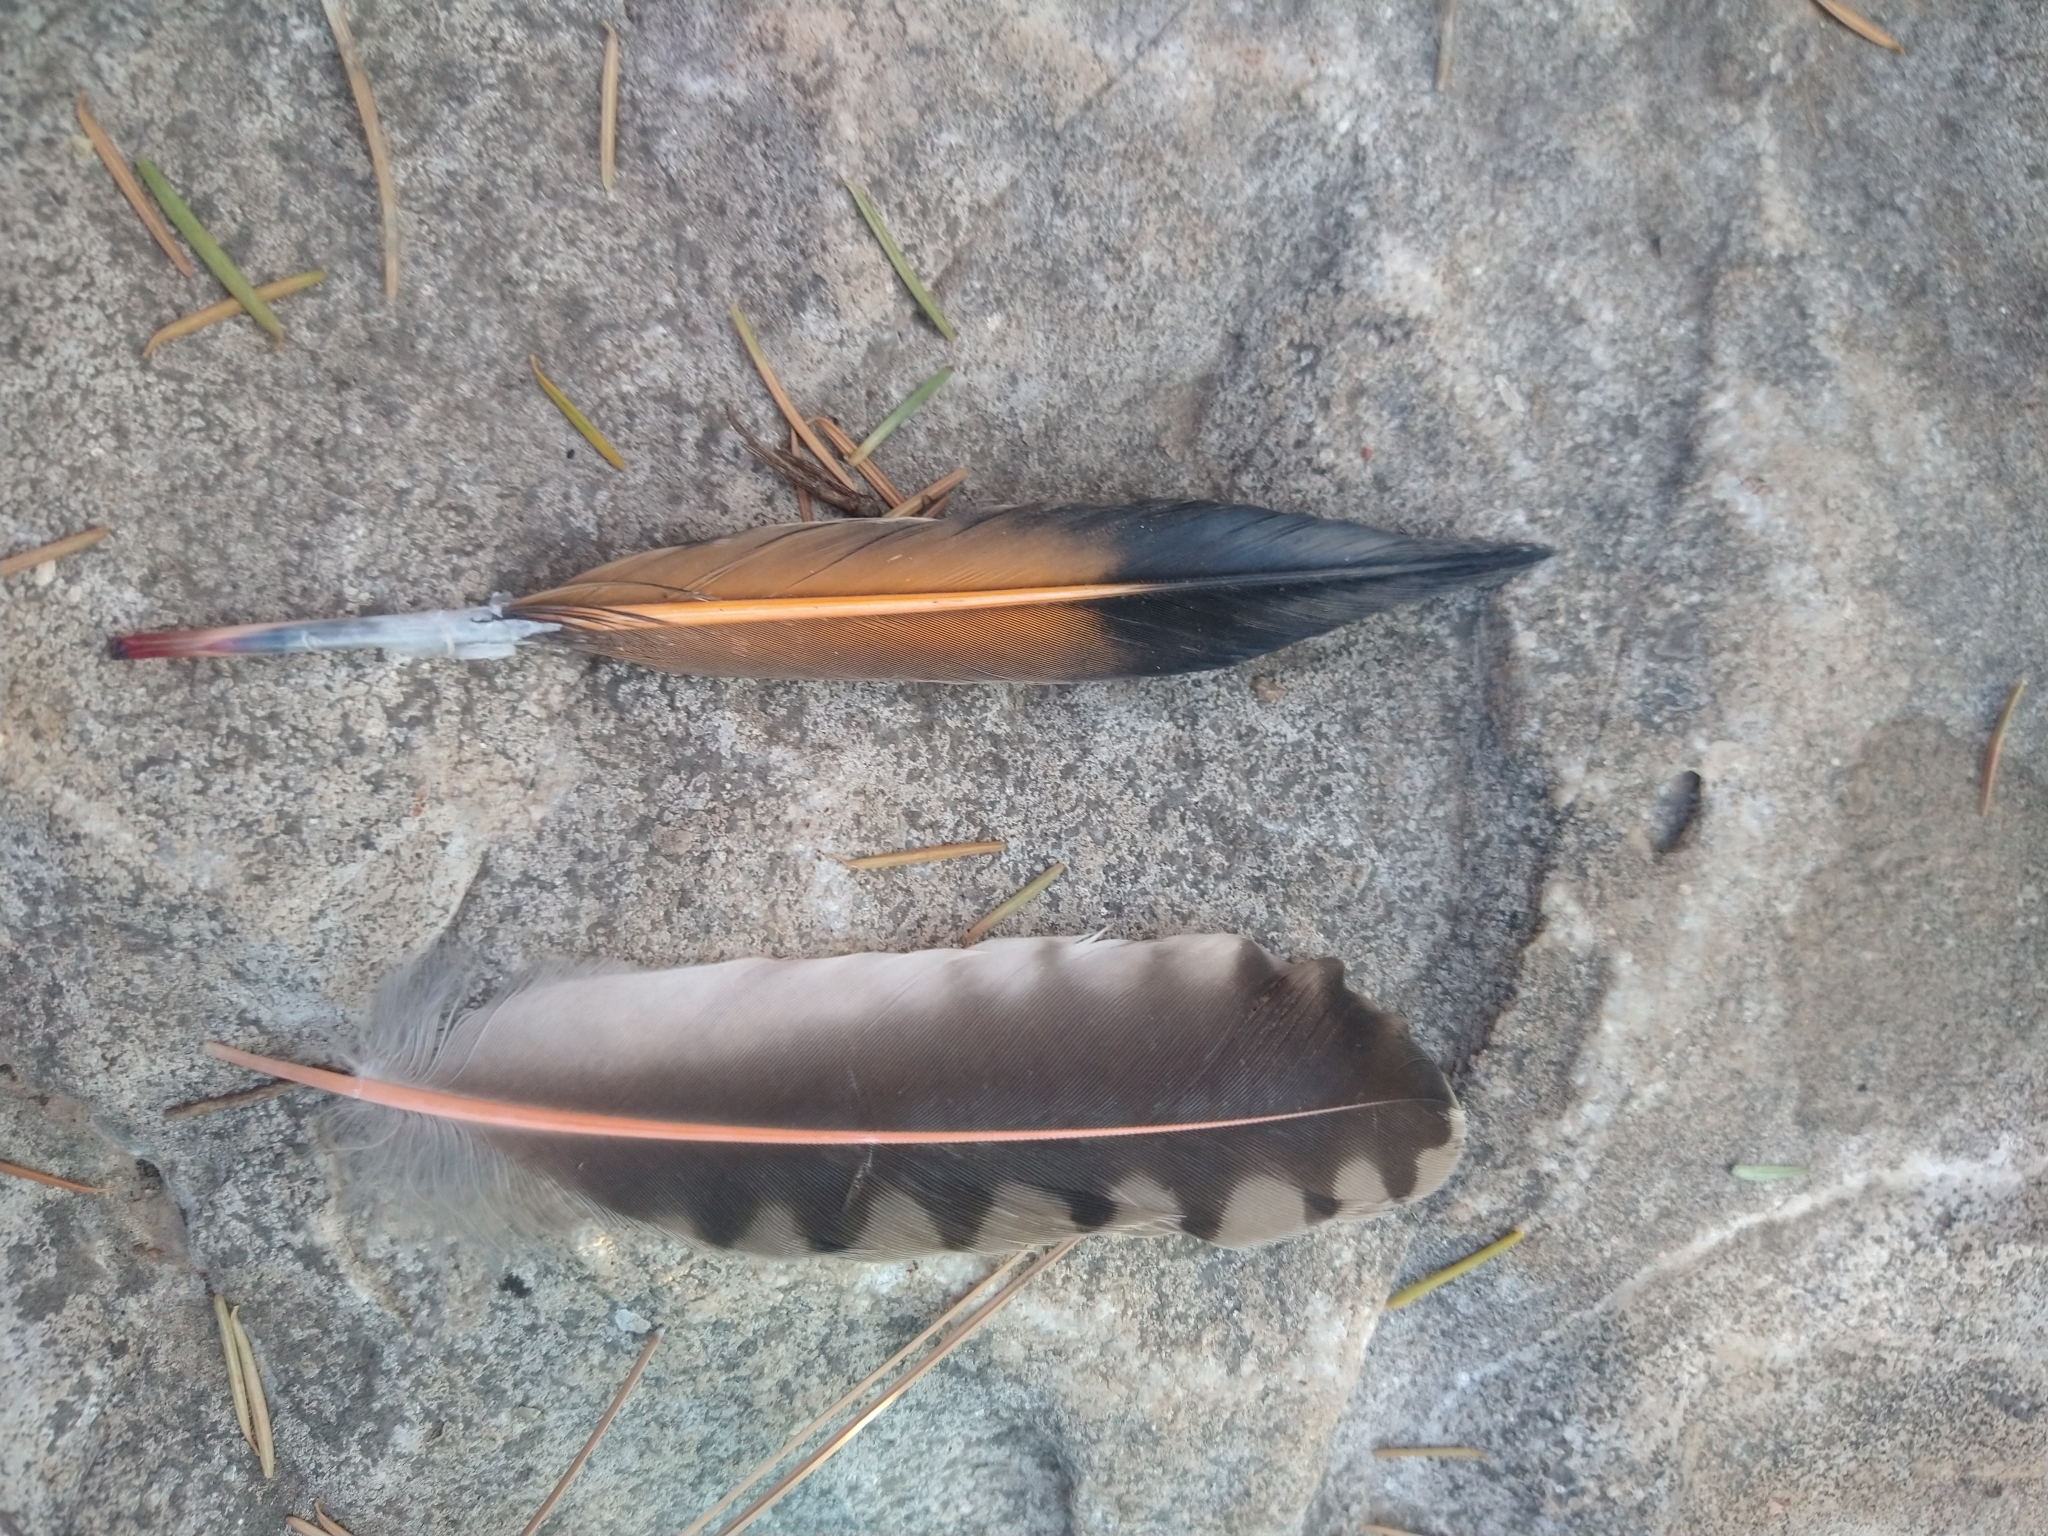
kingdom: Animalia
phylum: Chordata
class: Aves
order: Piciformes
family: Picidae
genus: Colaptes
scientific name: Colaptes auratus
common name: Northern flicker
